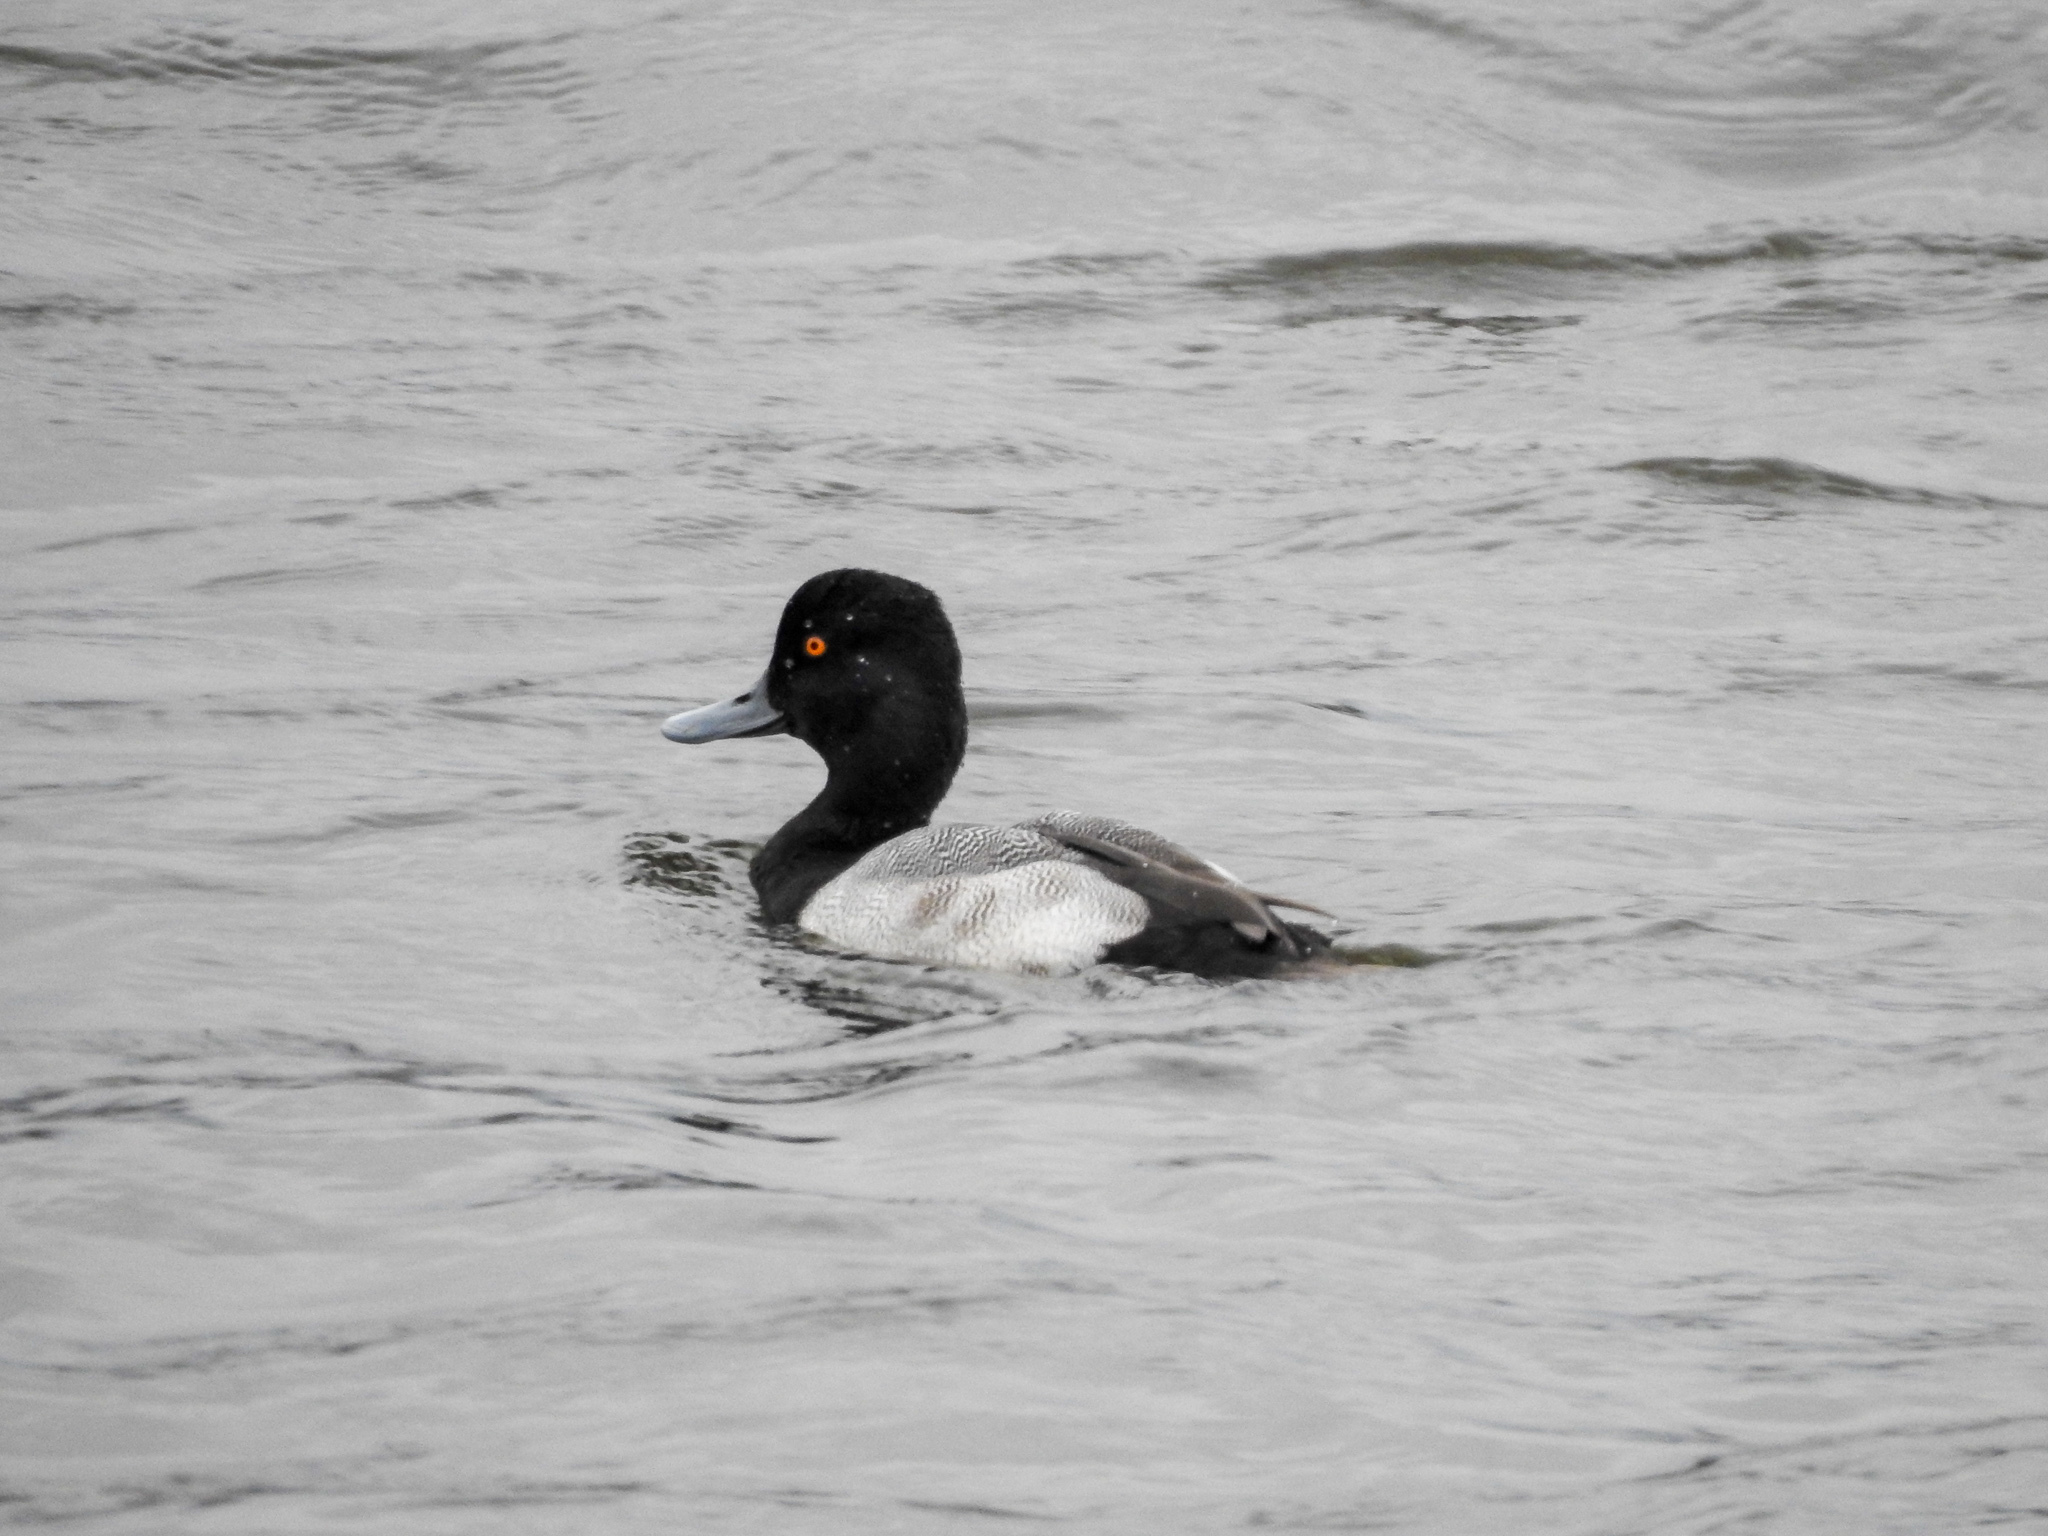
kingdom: Animalia
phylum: Chordata
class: Aves
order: Anseriformes
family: Anatidae
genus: Aythya
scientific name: Aythya affinis
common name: Lesser scaup
